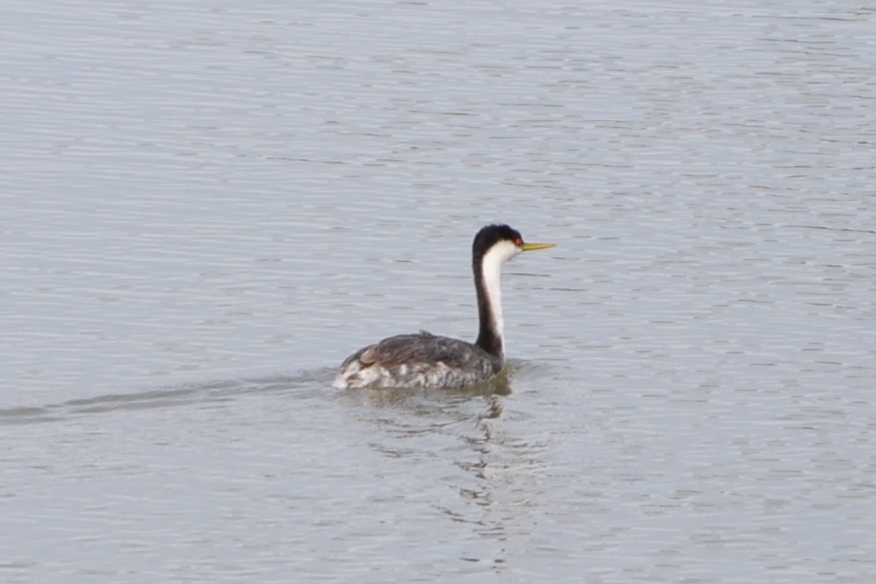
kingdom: Animalia
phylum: Chordata
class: Aves
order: Podicipediformes
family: Podicipedidae
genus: Aechmophorus
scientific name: Aechmophorus occidentalis
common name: Western grebe
